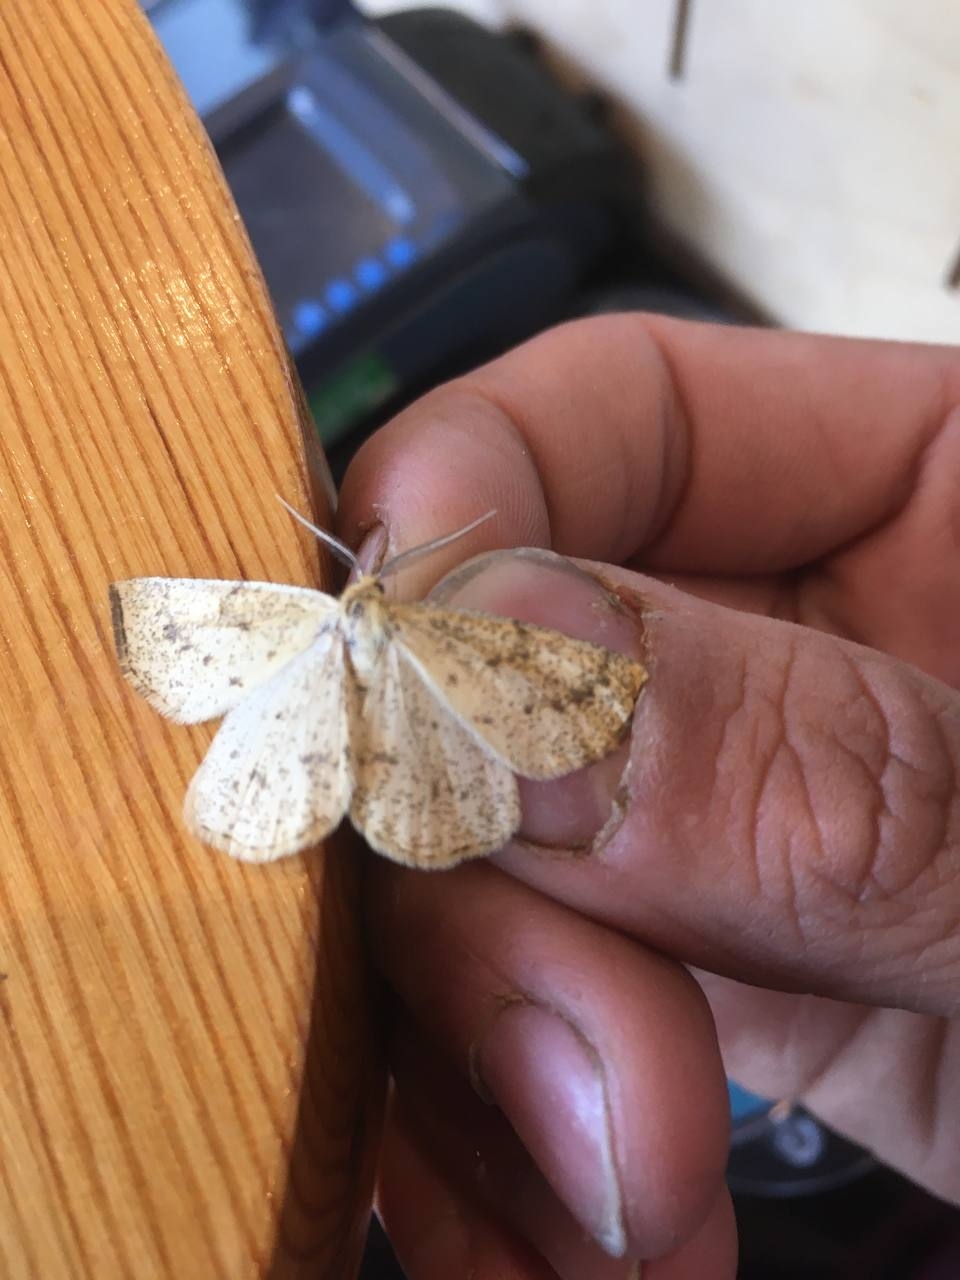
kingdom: Animalia
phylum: Arthropoda
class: Insecta
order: Lepidoptera
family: Geometridae
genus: Hypoxystis
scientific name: Hypoxystis pluviaria
